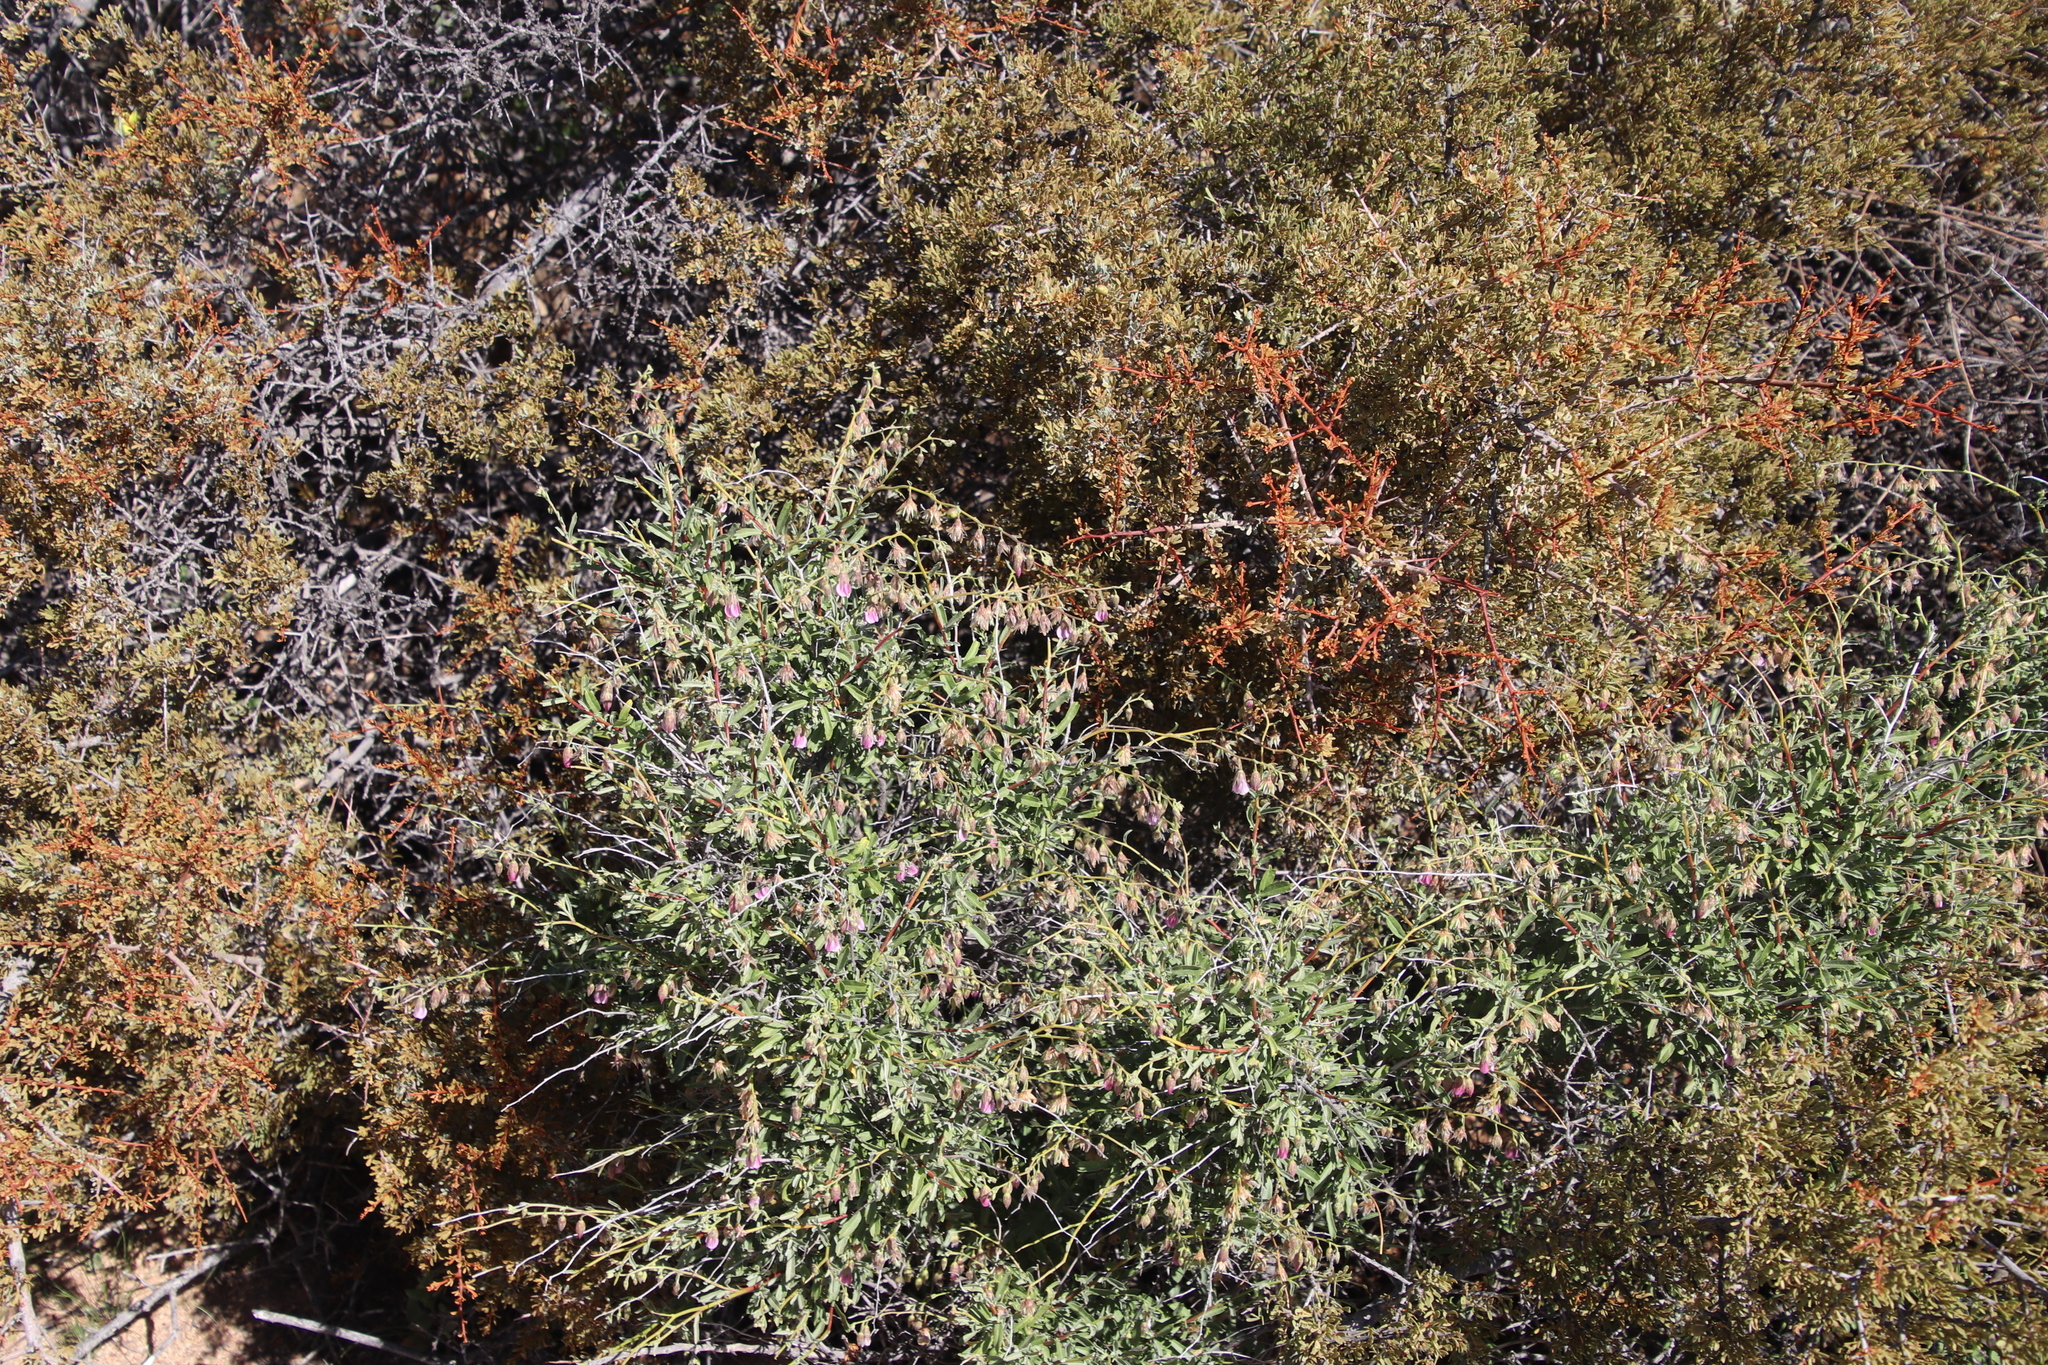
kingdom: Plantae
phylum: Tracheophyta
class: Magnoliopsida
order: Malvales
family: Malvaceae
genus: Hermannia
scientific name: Hermannia trifurca
